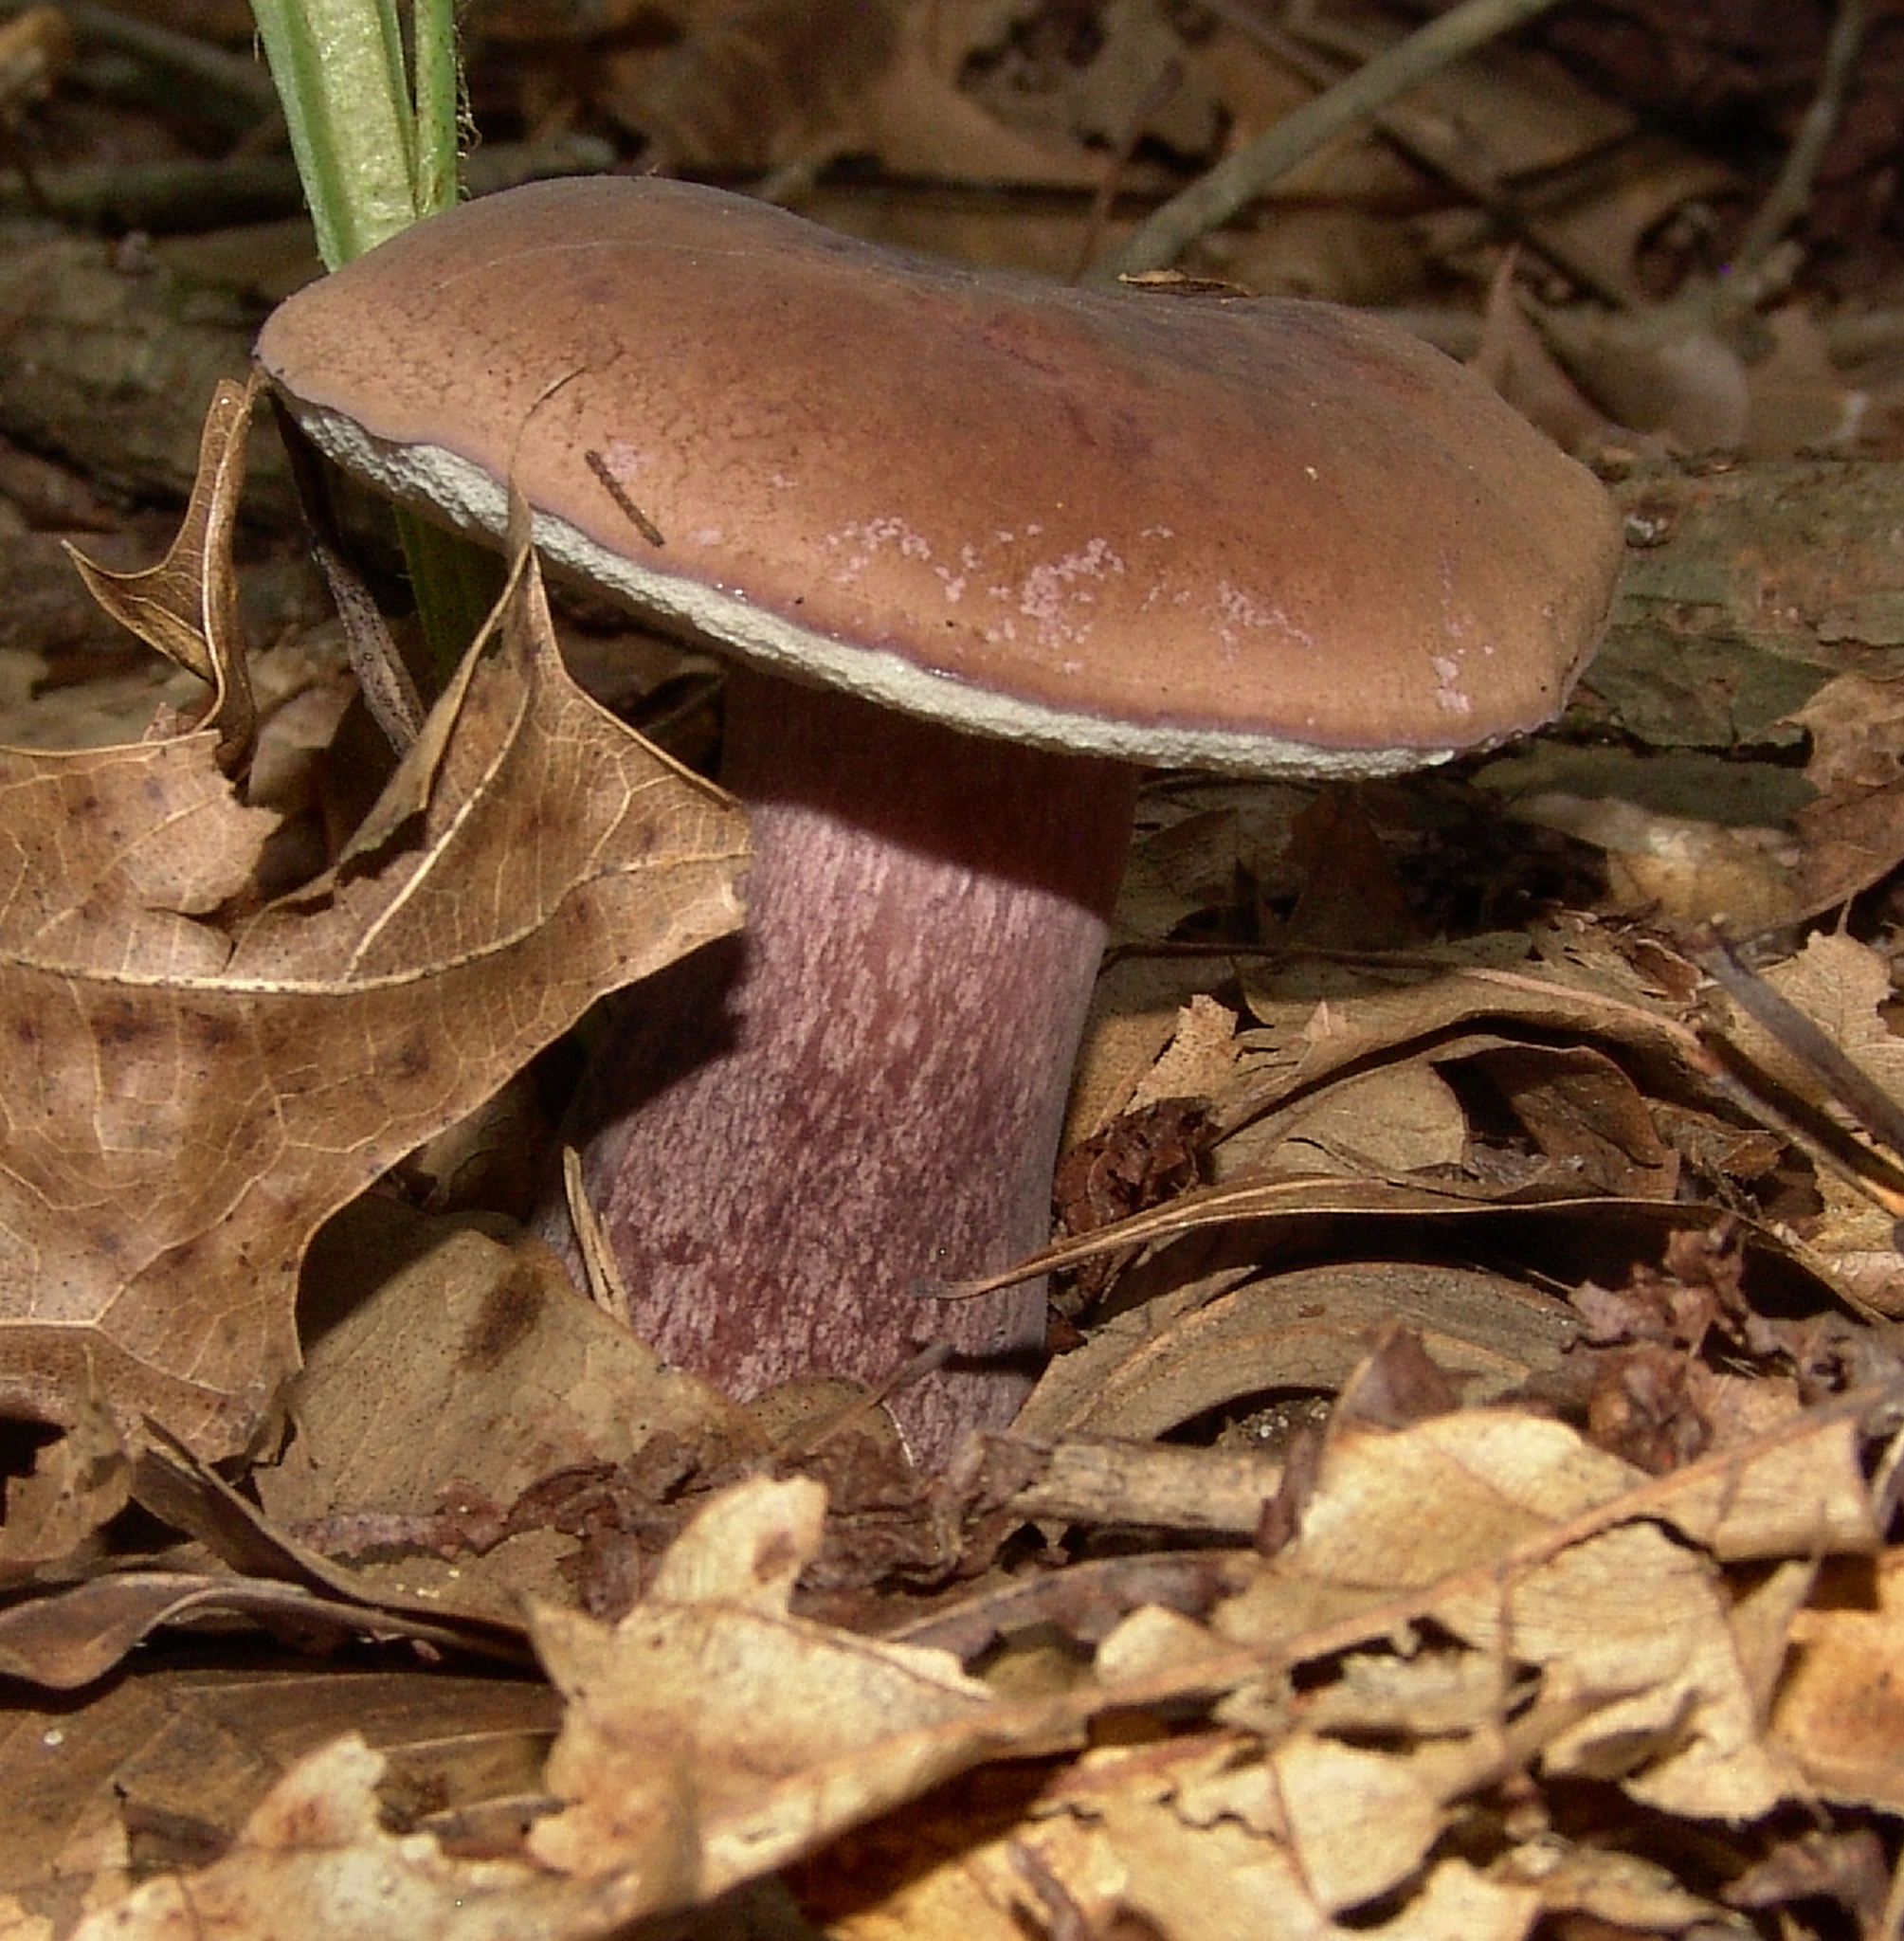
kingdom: Fungi
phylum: Basidiomycota
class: Agaricomycetes
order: Boletales
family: Boletaceae
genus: Tylopilus
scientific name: Tylopilus plumbeoviolaceus
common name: Violet gray bolete
